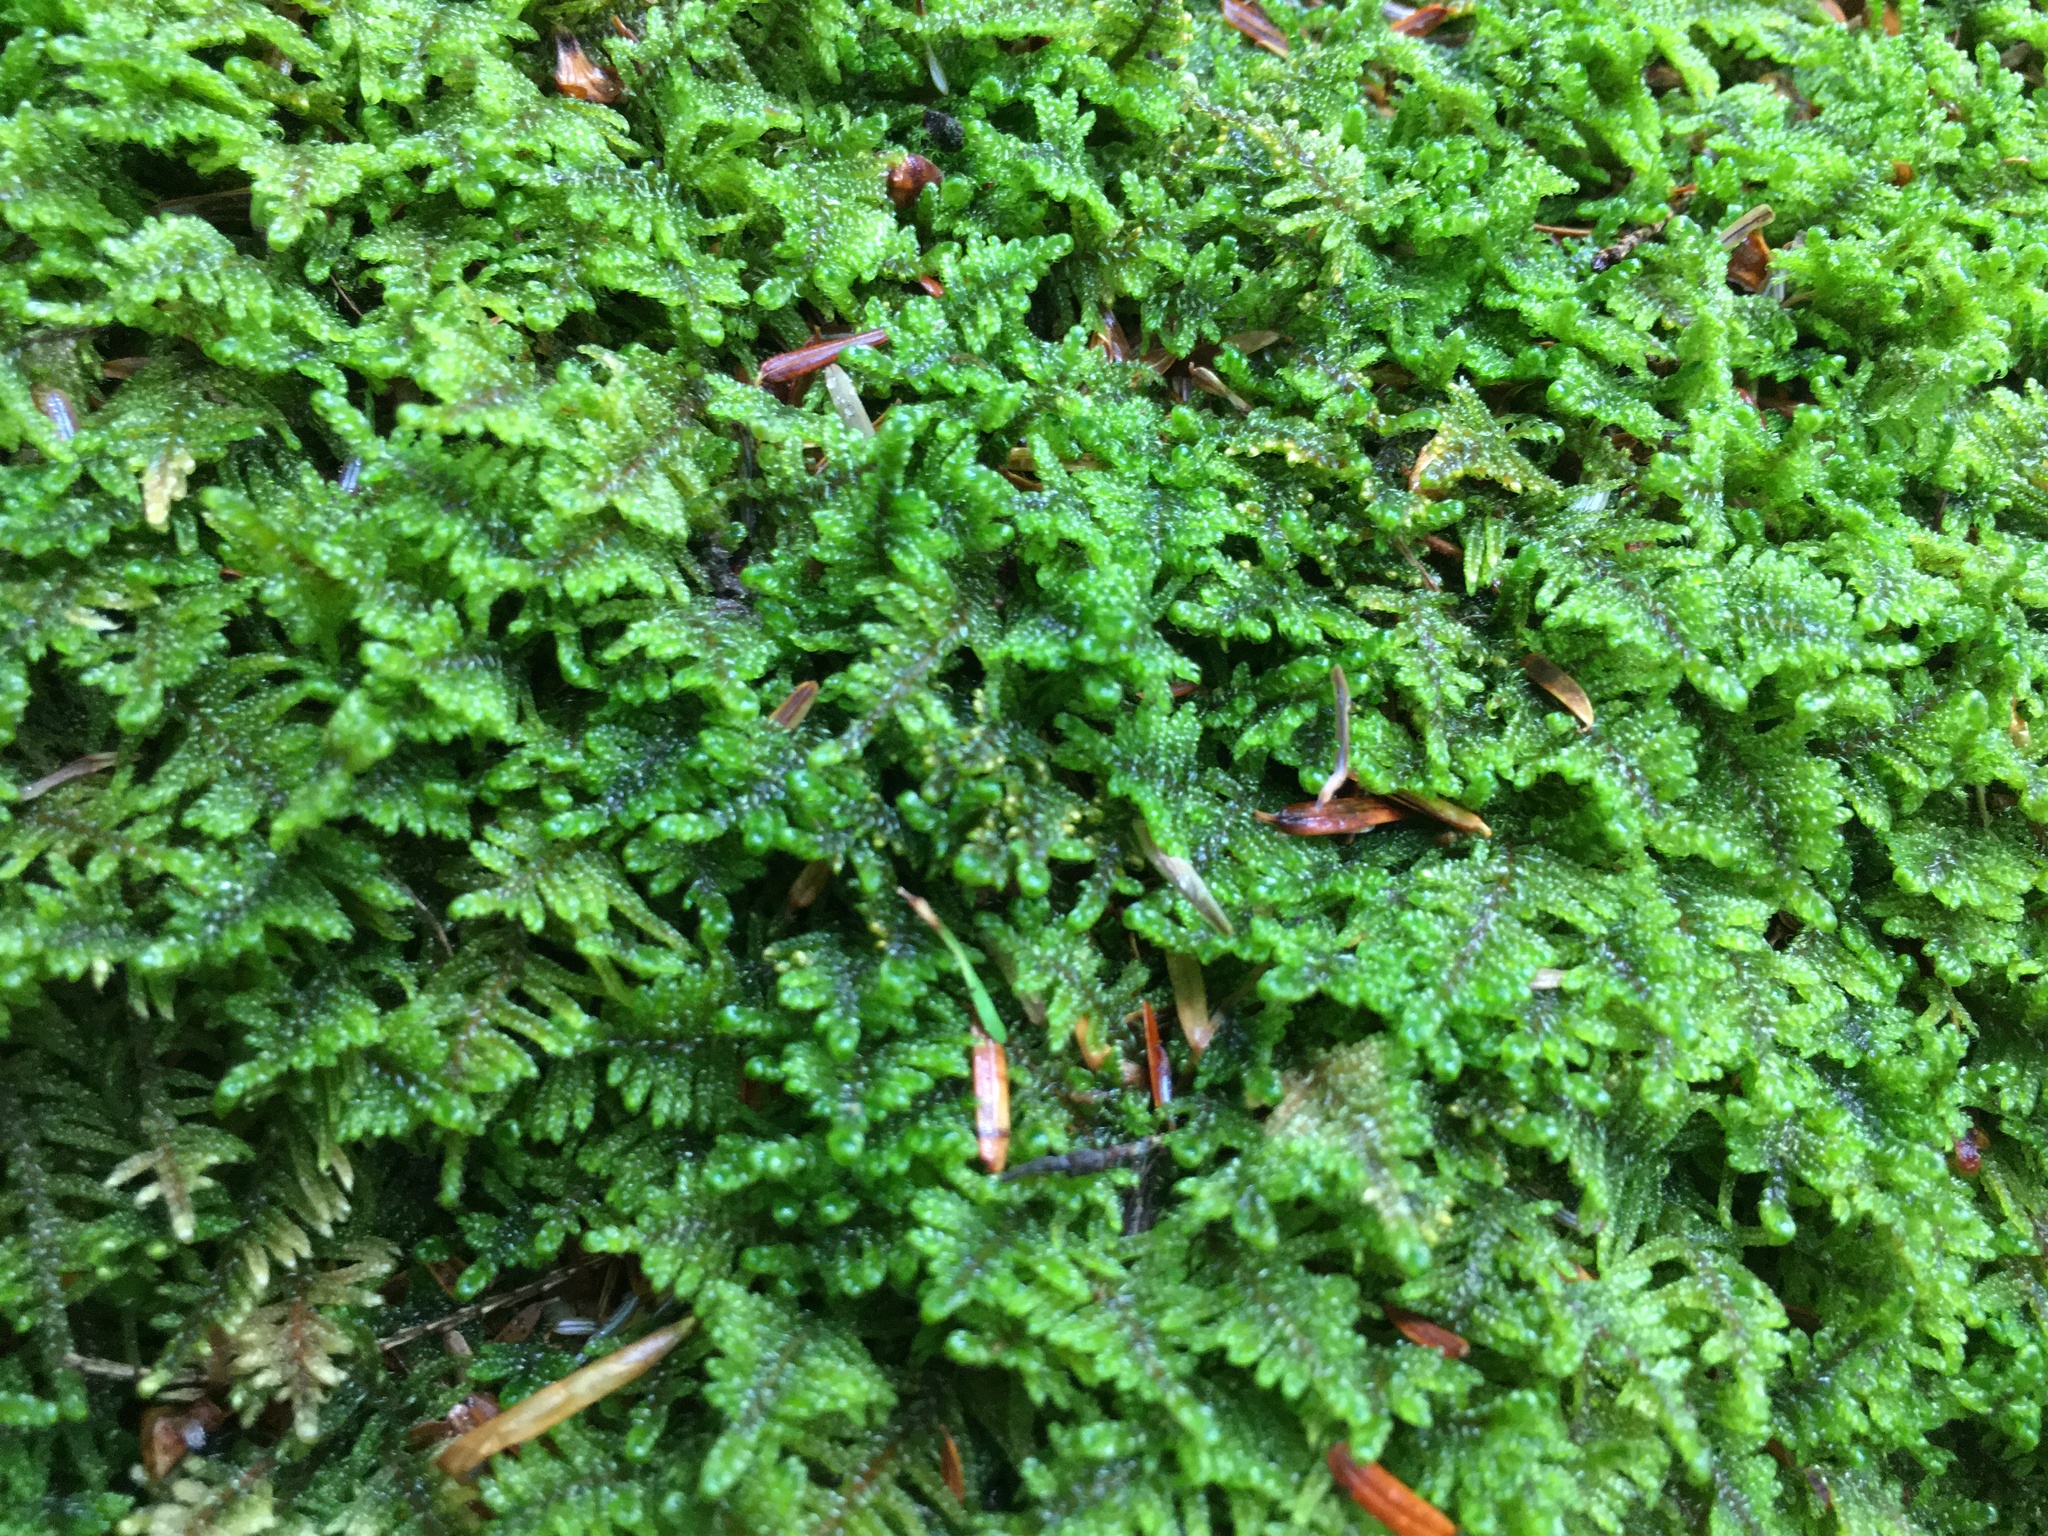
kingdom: Plantae
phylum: Bryophyta
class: Bryopsida
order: Hypnales
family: Callicladiaceae
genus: Callicladium
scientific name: Callicladium imponens
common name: Brocade moss
